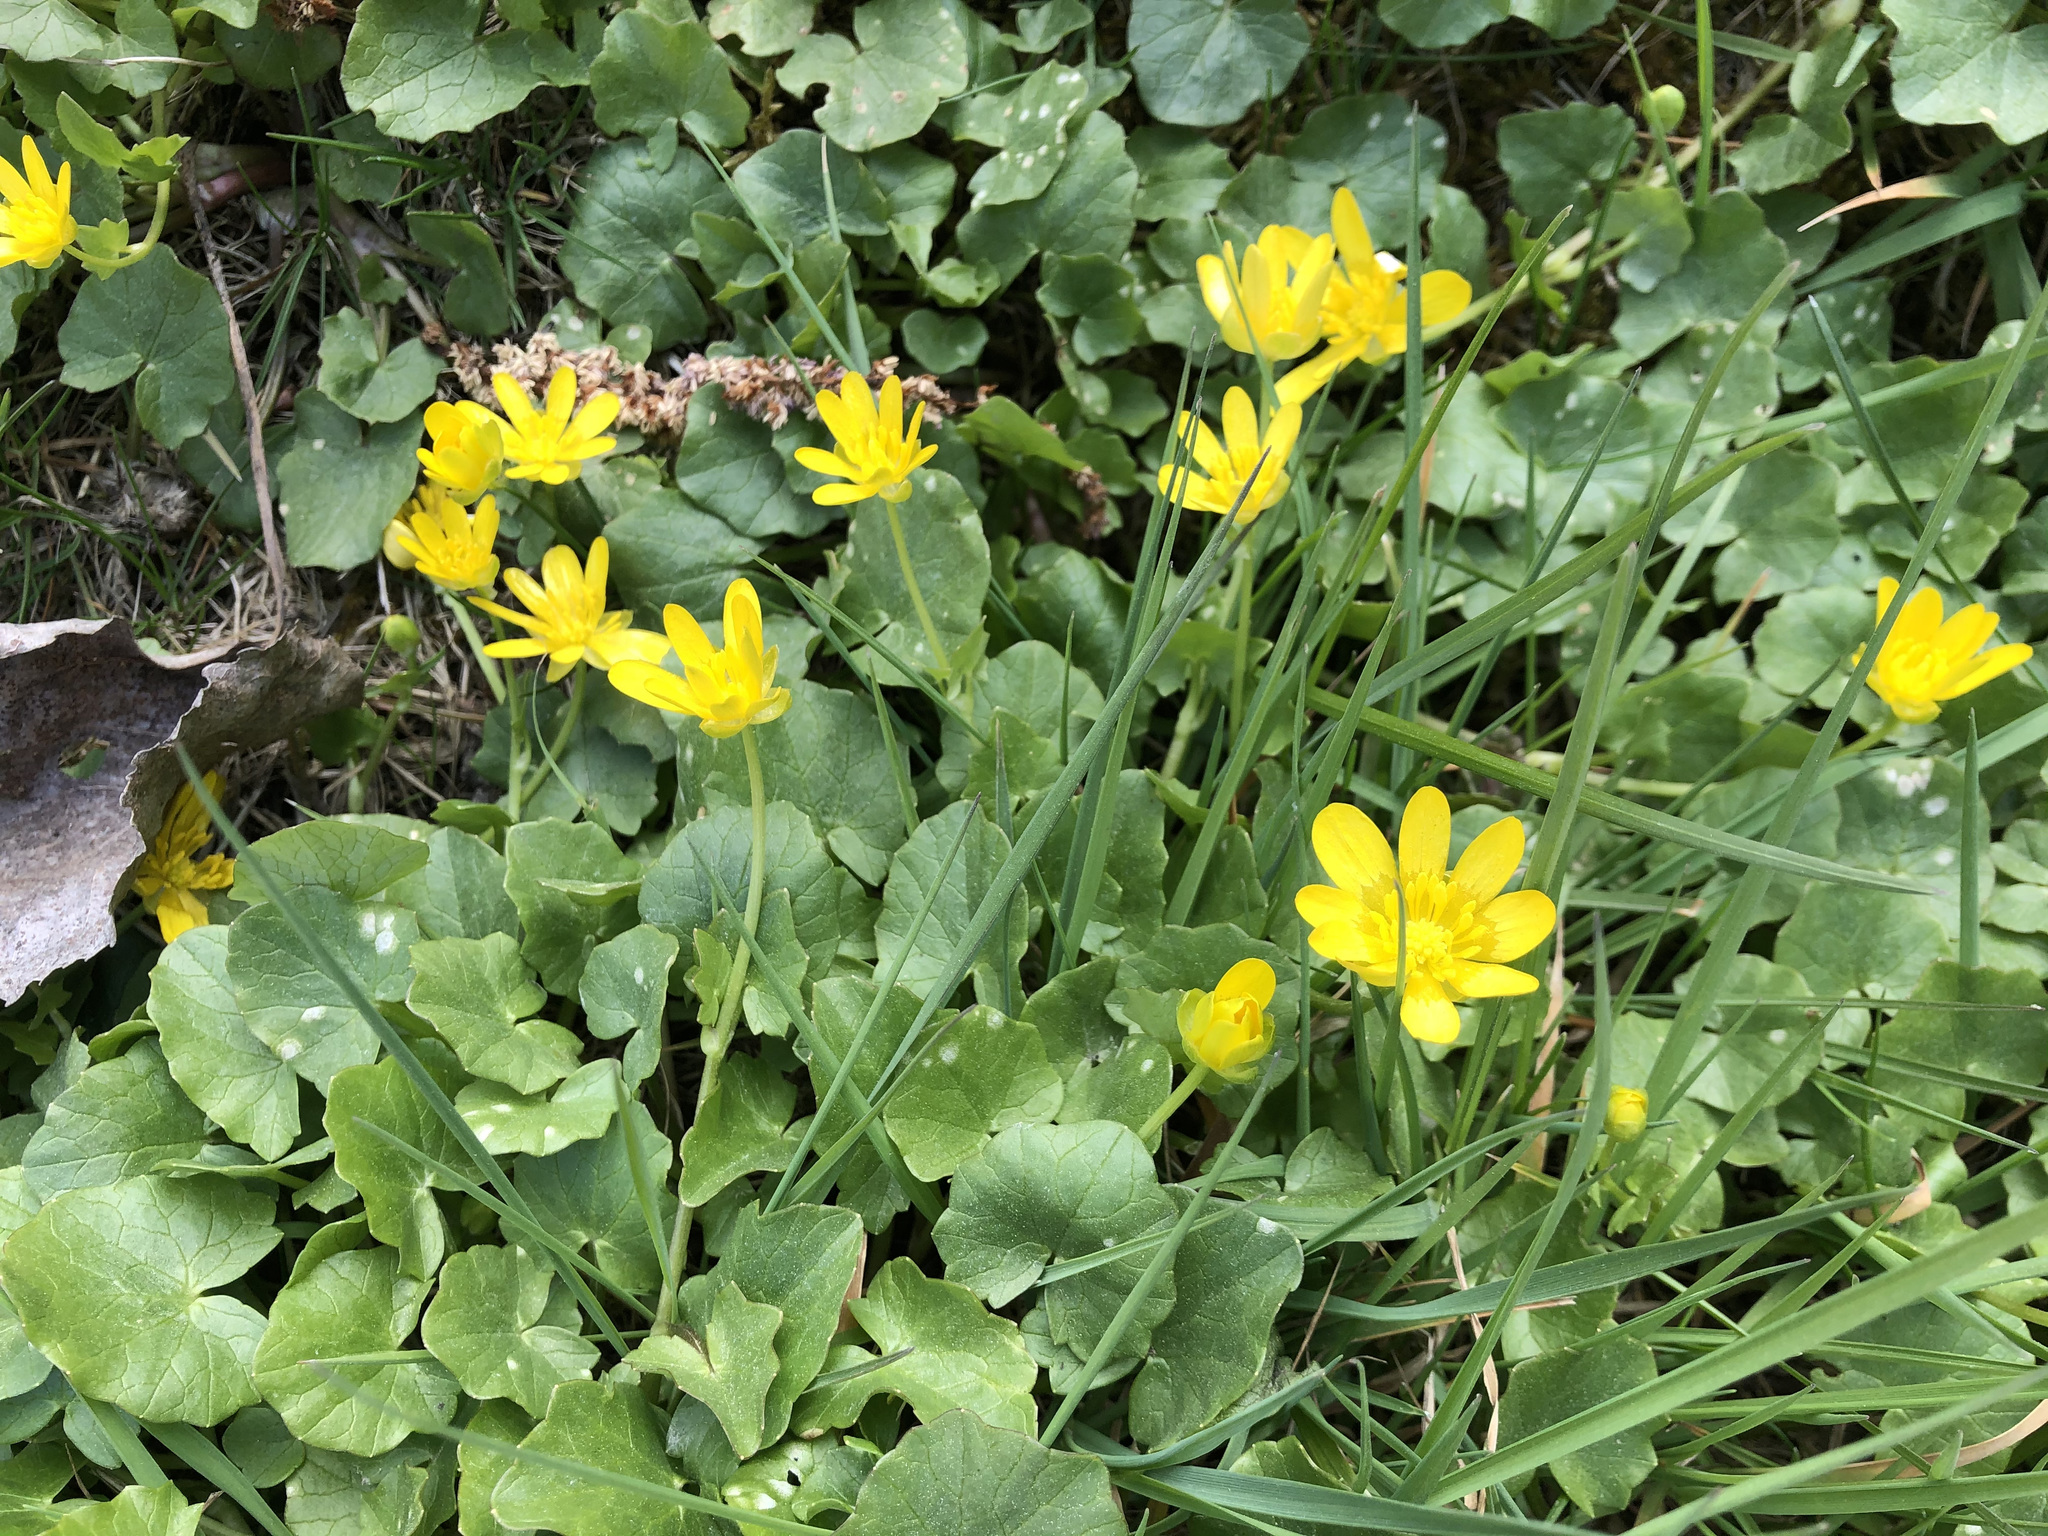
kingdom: Plantae
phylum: Tracheophyta
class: Magnoliopsida
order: Ranunculales
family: Ranunculaceae
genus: Ficaria
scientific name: Ficaria verna
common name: Lesser celandine
